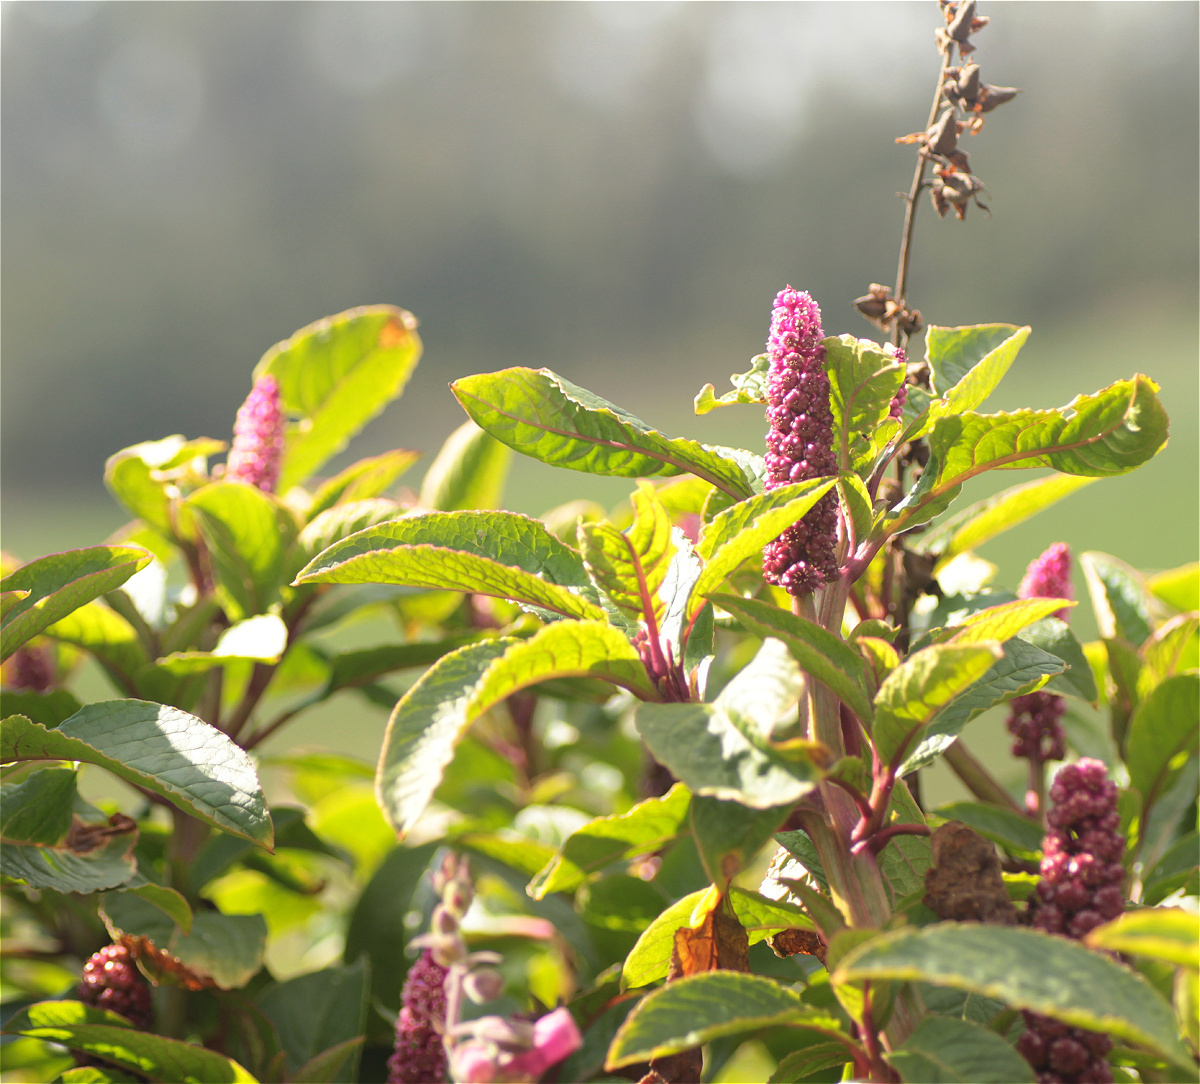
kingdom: Plantae
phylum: Tracheophyta
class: Magnoliopsida
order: Caryophyllales
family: Phytolaccaceae
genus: Phytolacca
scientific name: Phytolacca bogotensis
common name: Southern pokeweed
